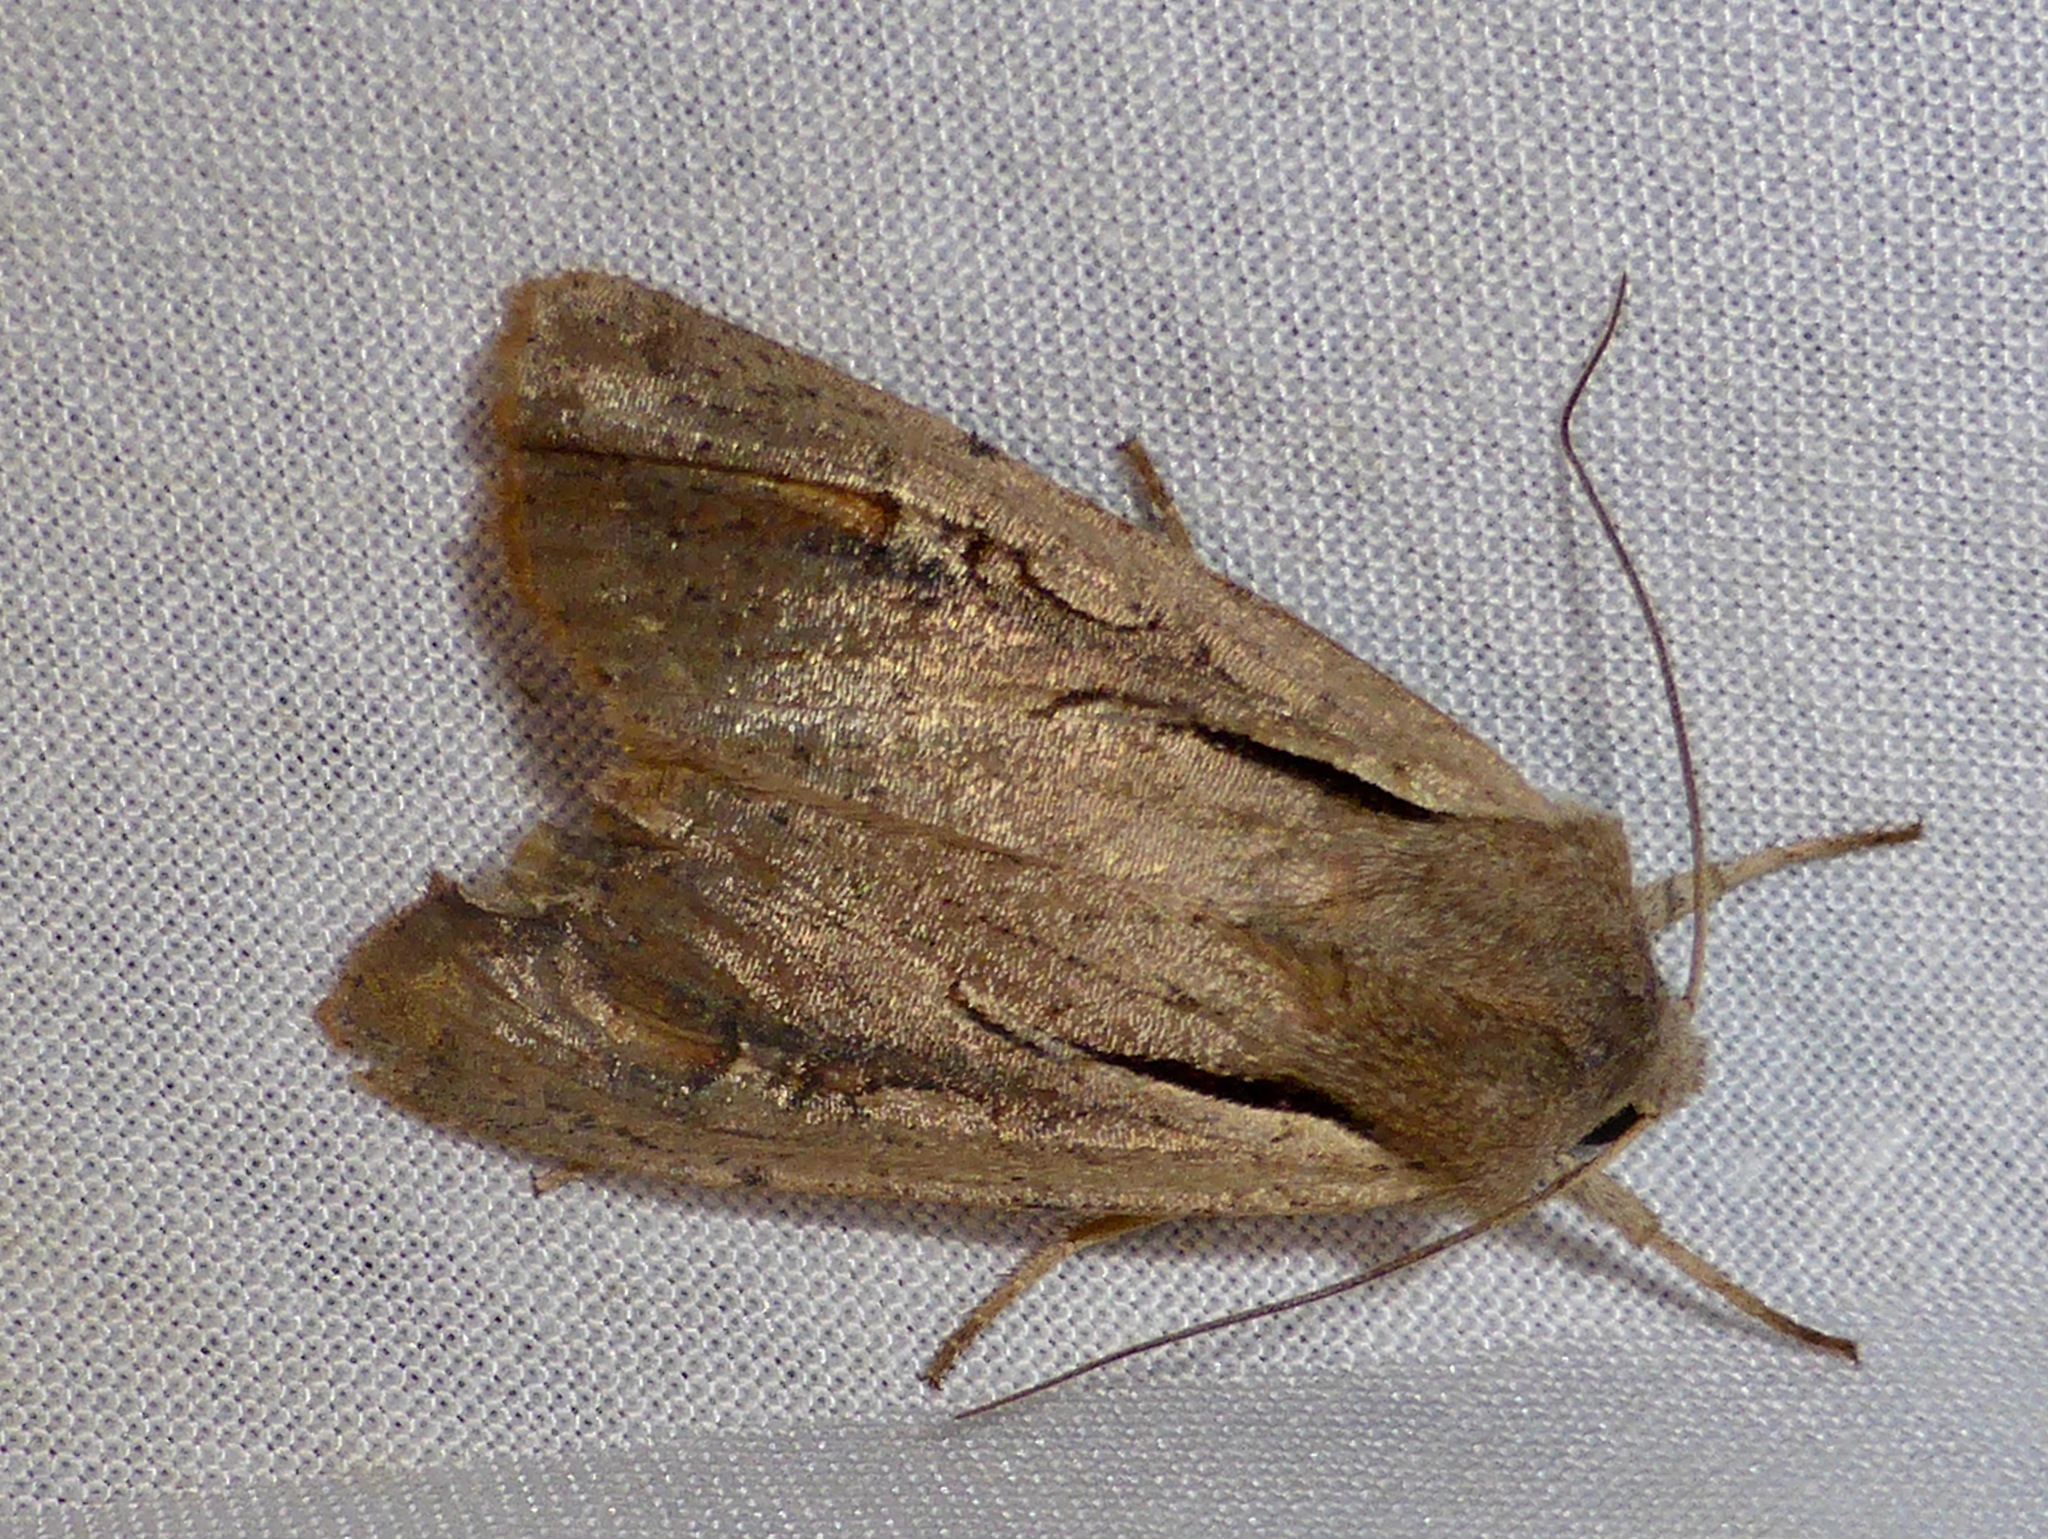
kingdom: Animalia
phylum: Arthropoda
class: Insecta
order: Lepidoptera
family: Noctuidae
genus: Ichneutica
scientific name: Ichneutica atristriga
